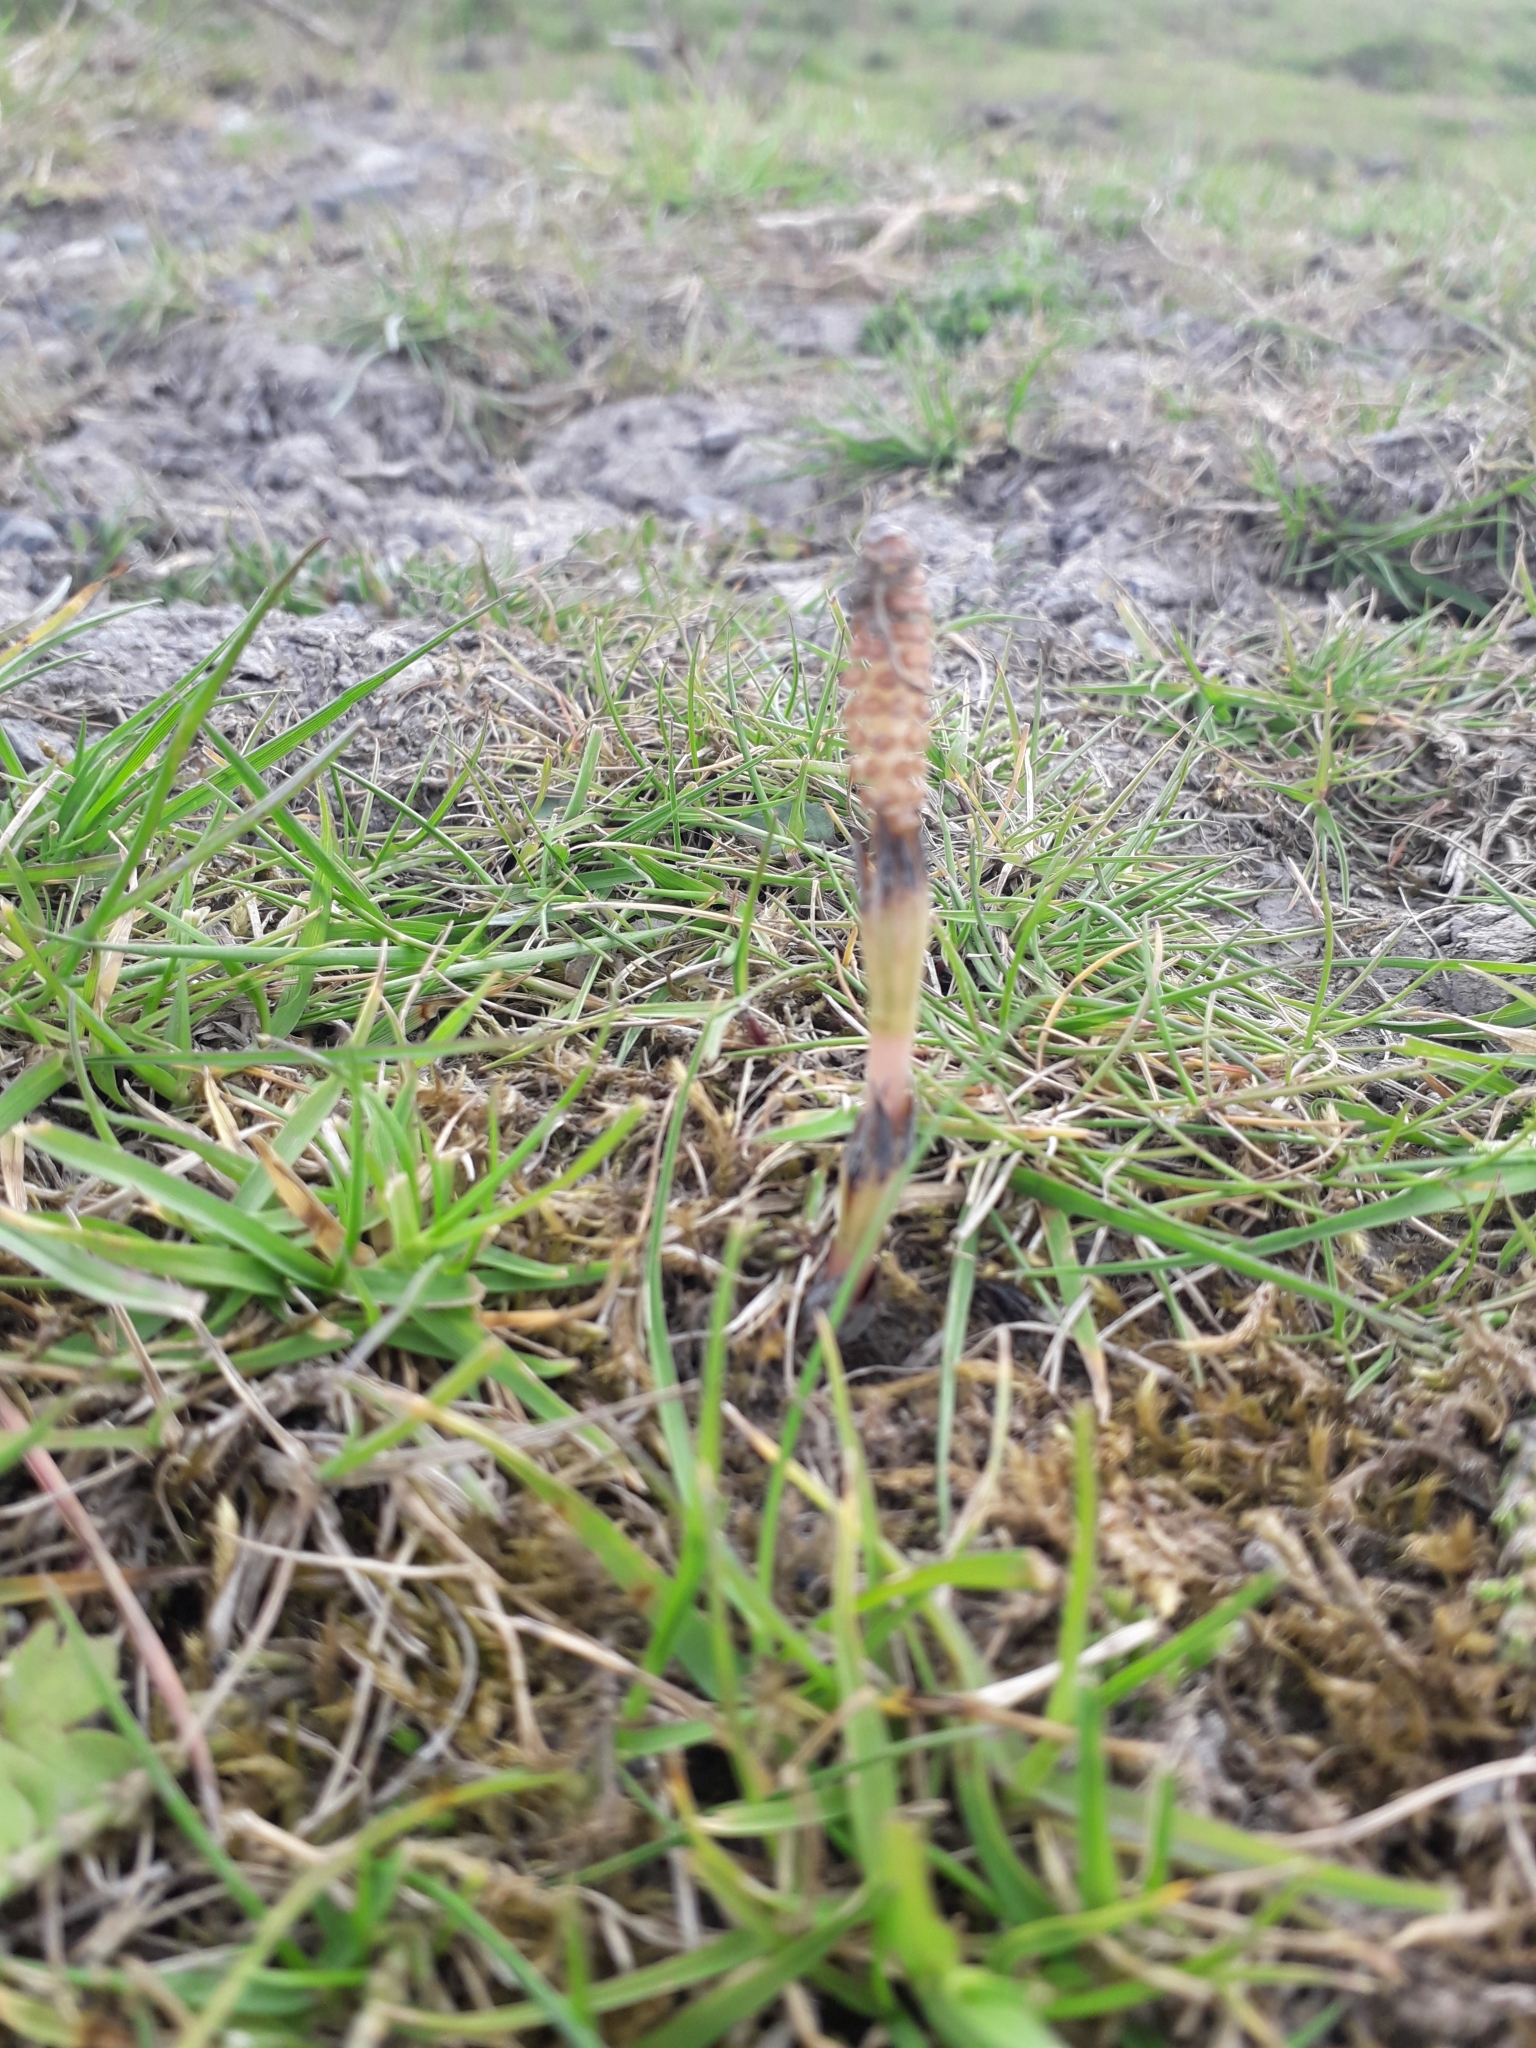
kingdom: Plantae
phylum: Tracheophyta
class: Polypodiopsida
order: Equisetales
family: Equisetaceae
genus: Equisetum
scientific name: Equisetum arvense
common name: Field horsetail
